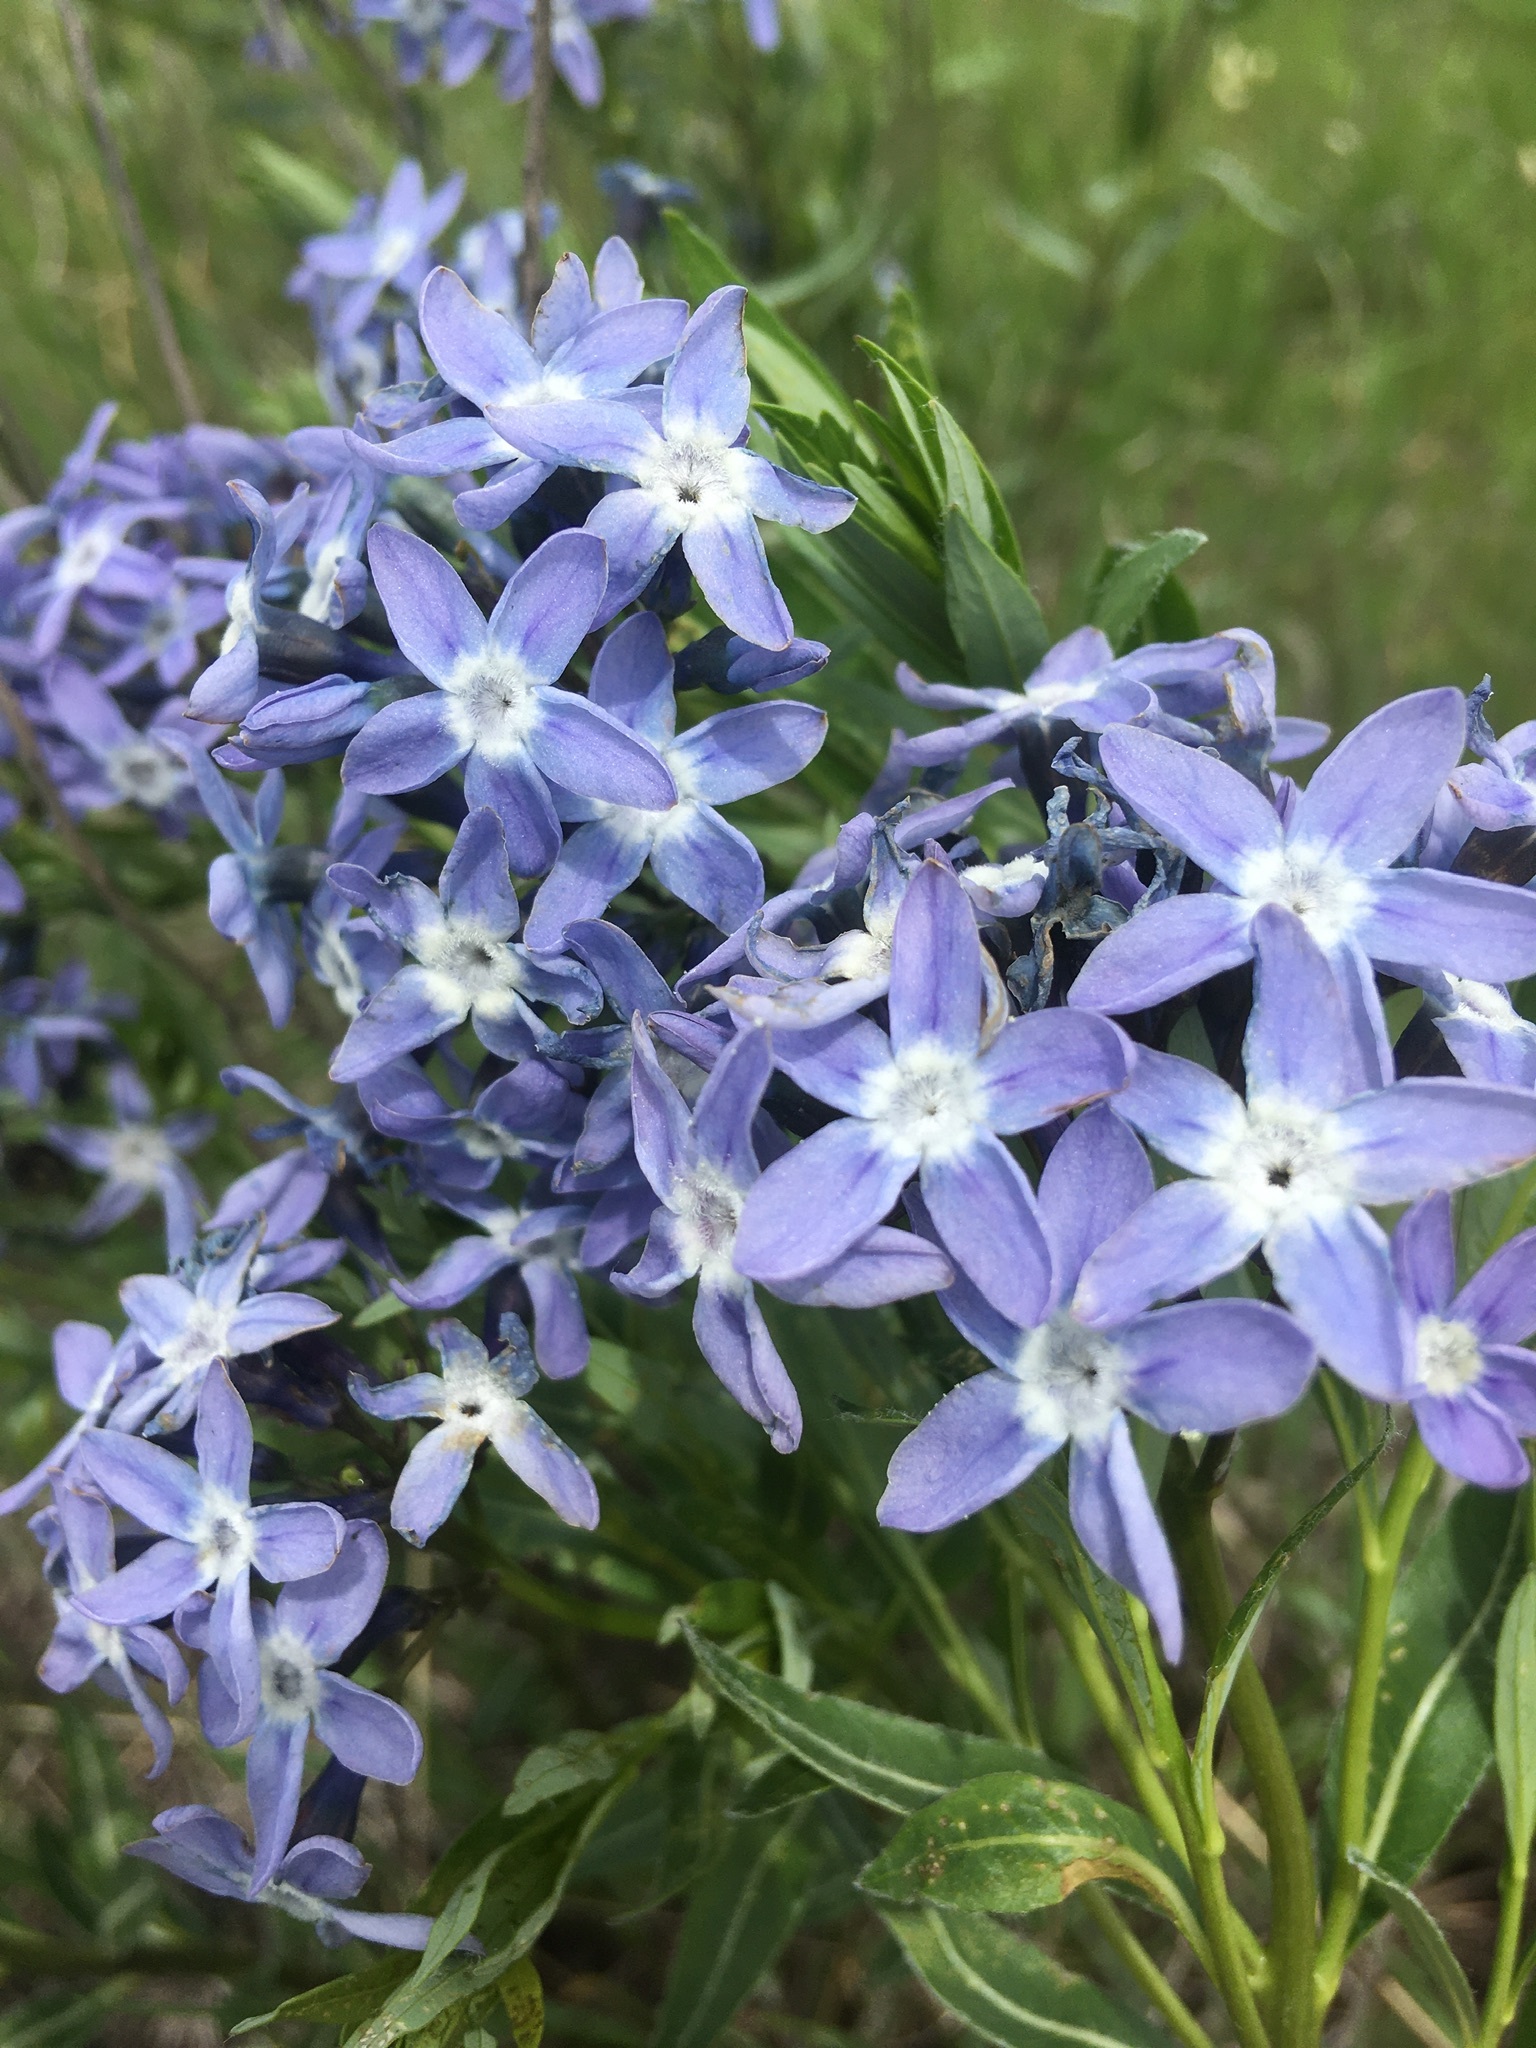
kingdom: Plantae
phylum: Tracheophyta
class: Magnoliopsida
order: Gentianales
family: Apocynaceae
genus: Amsonia
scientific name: Amsonia ciliata
